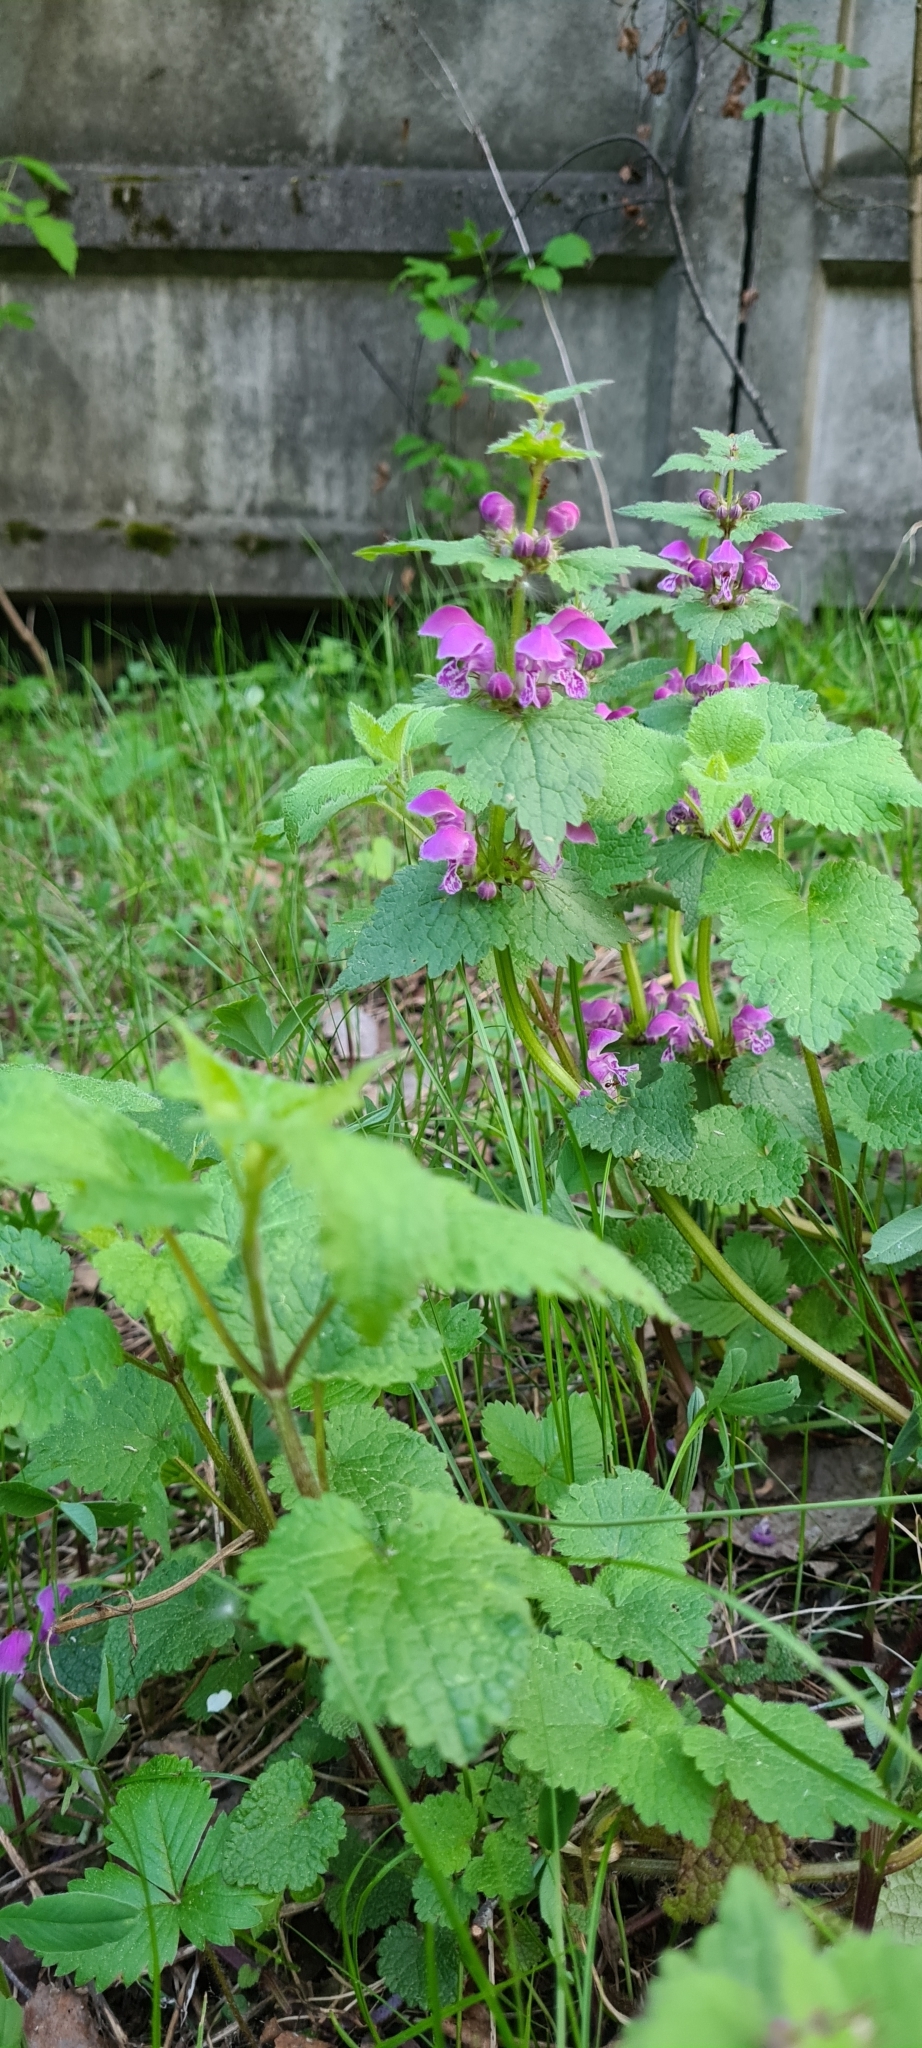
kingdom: Plantae
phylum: Tracheophyta
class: Magnoliopsida
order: Lamiales
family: Lamiaceae
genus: Lamium
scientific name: Lamium maculatum
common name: Spotted dead-nettle
